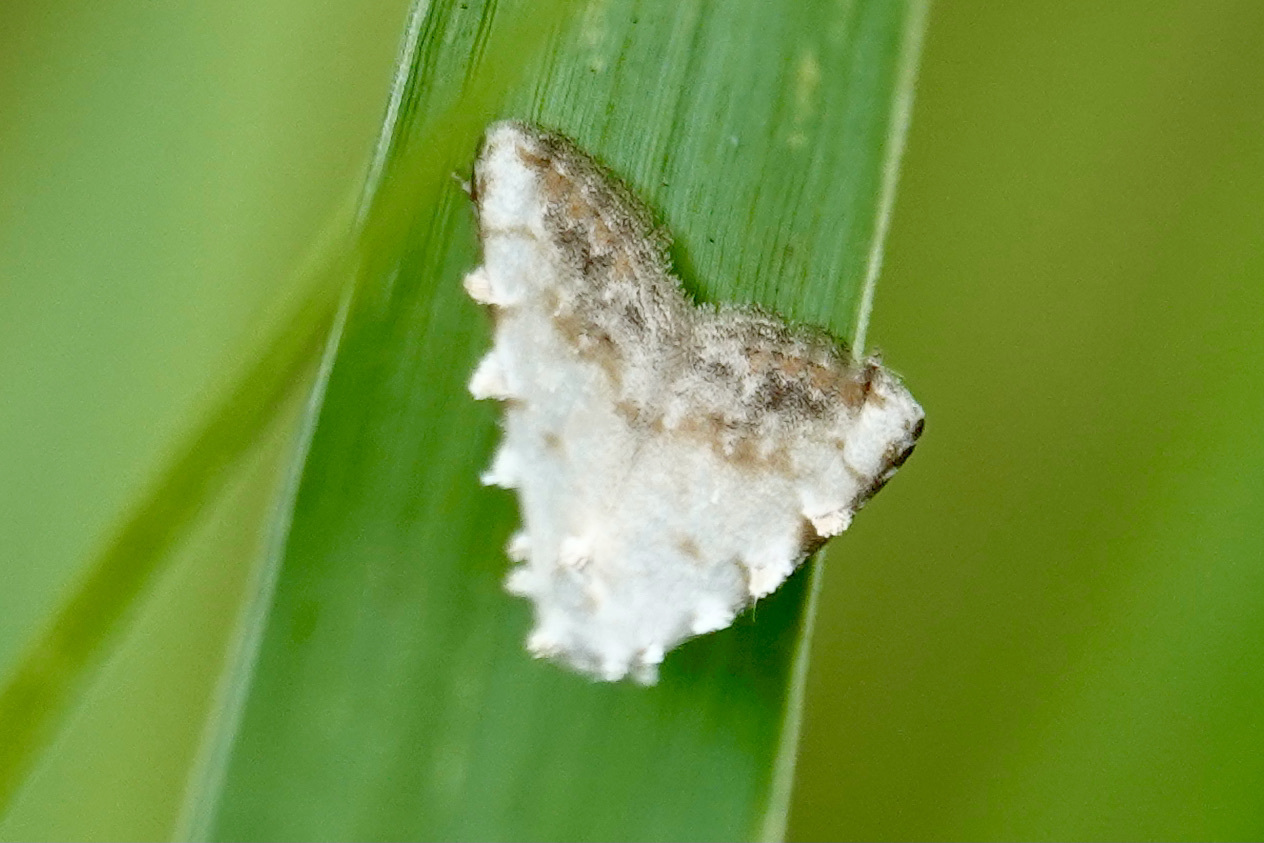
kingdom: Animalia
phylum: Arthropoda
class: Insecta
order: Lepidoptera
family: Nolidae
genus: Nola
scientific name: Nola cereella
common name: Sorghum webworm moth
